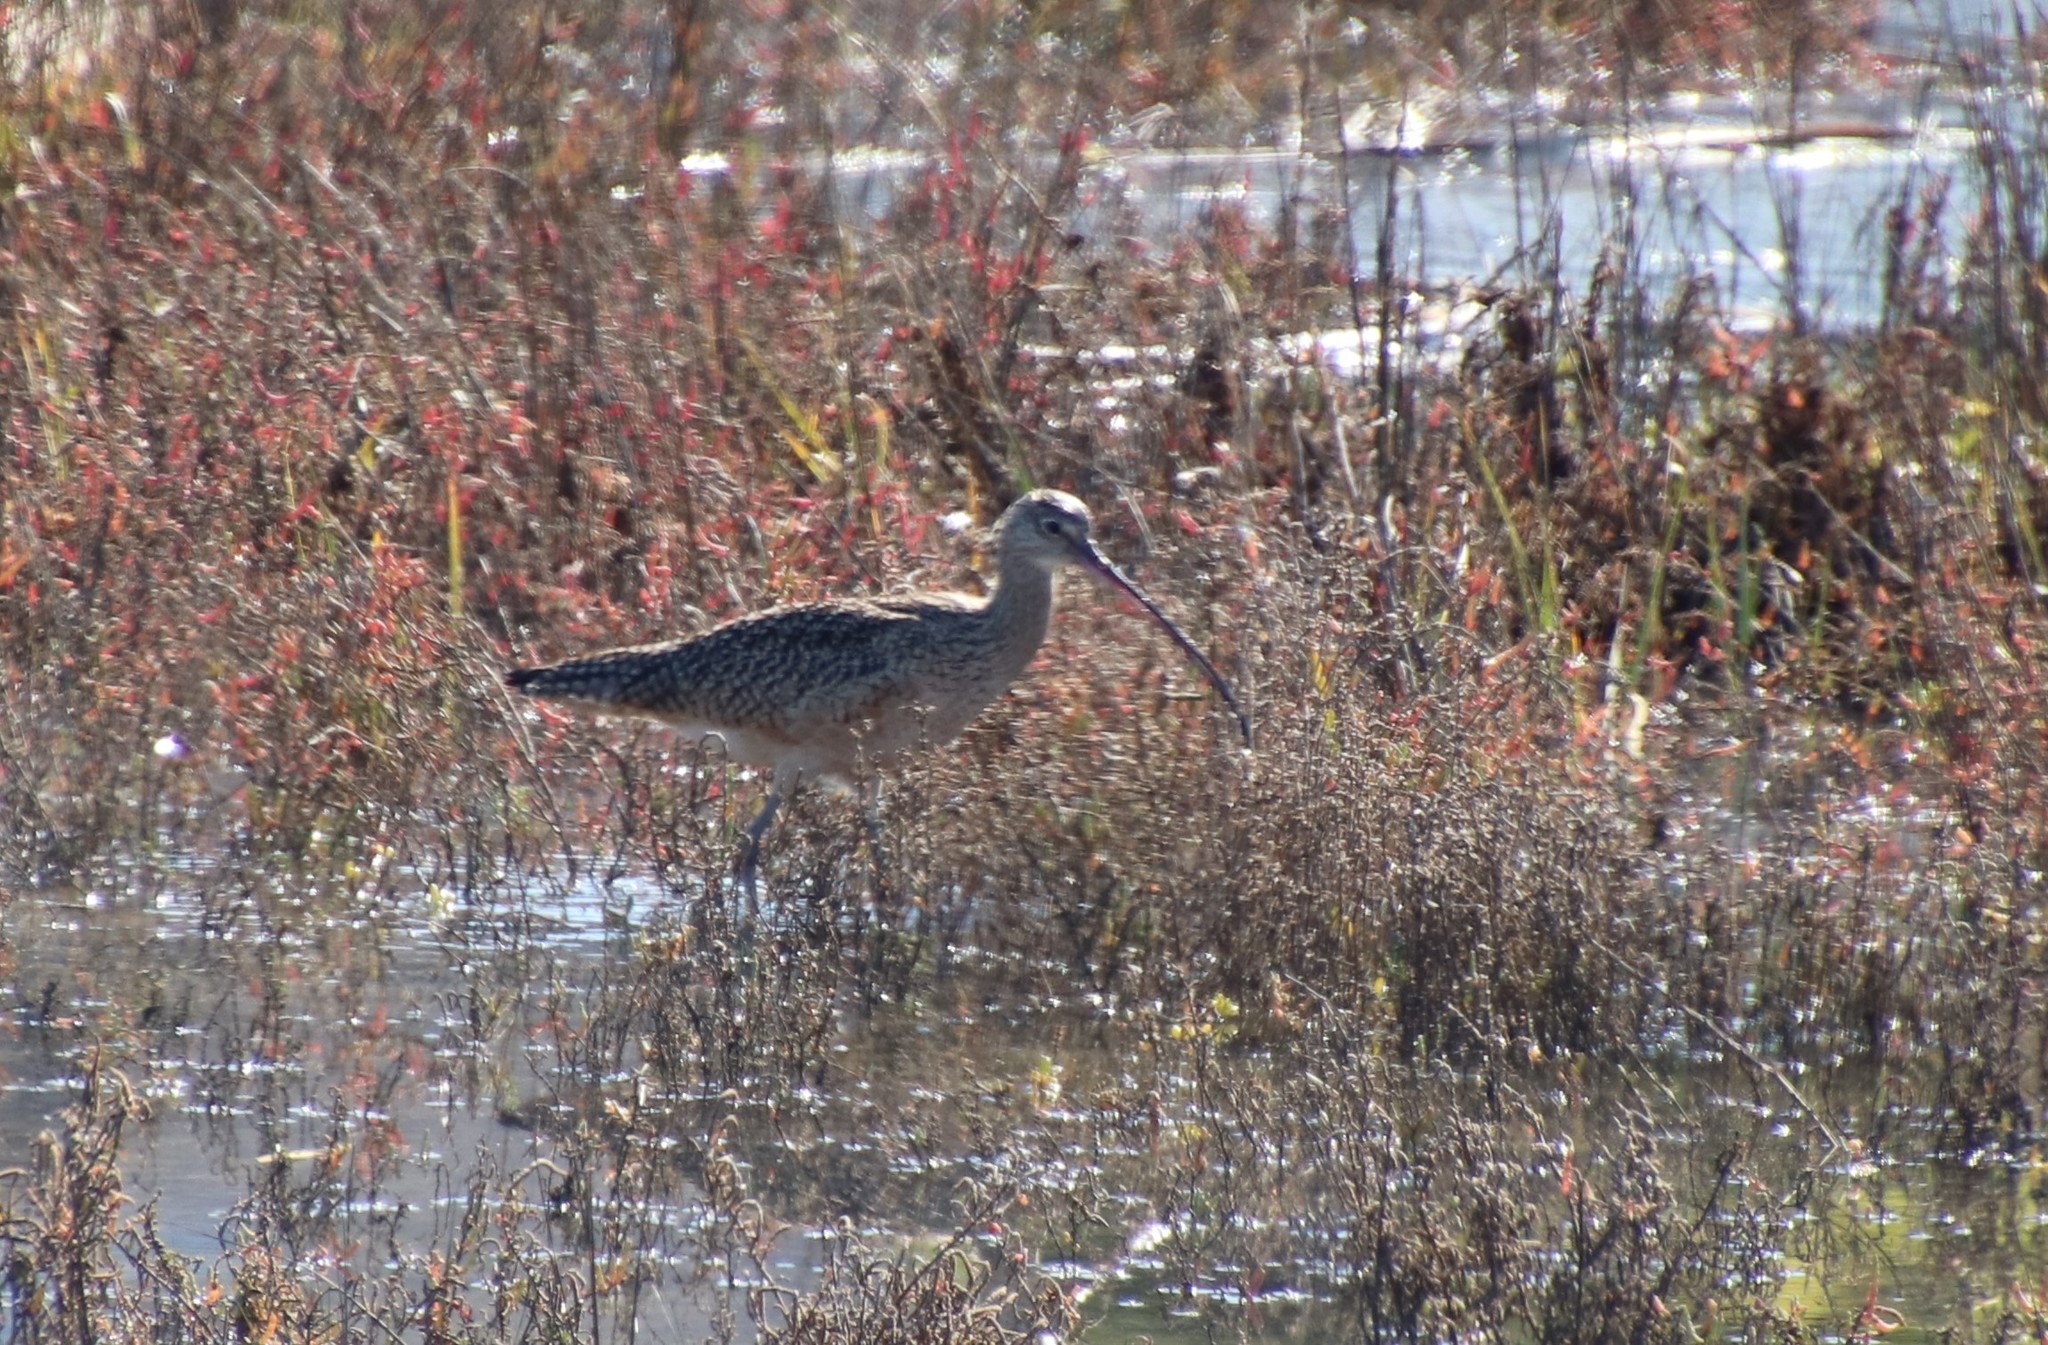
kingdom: Animalia
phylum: Chordata
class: Aves
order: Charadriiformes
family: Scolopacidae
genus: Numenius
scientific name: Numenius americanus
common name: Long-billed curlew
